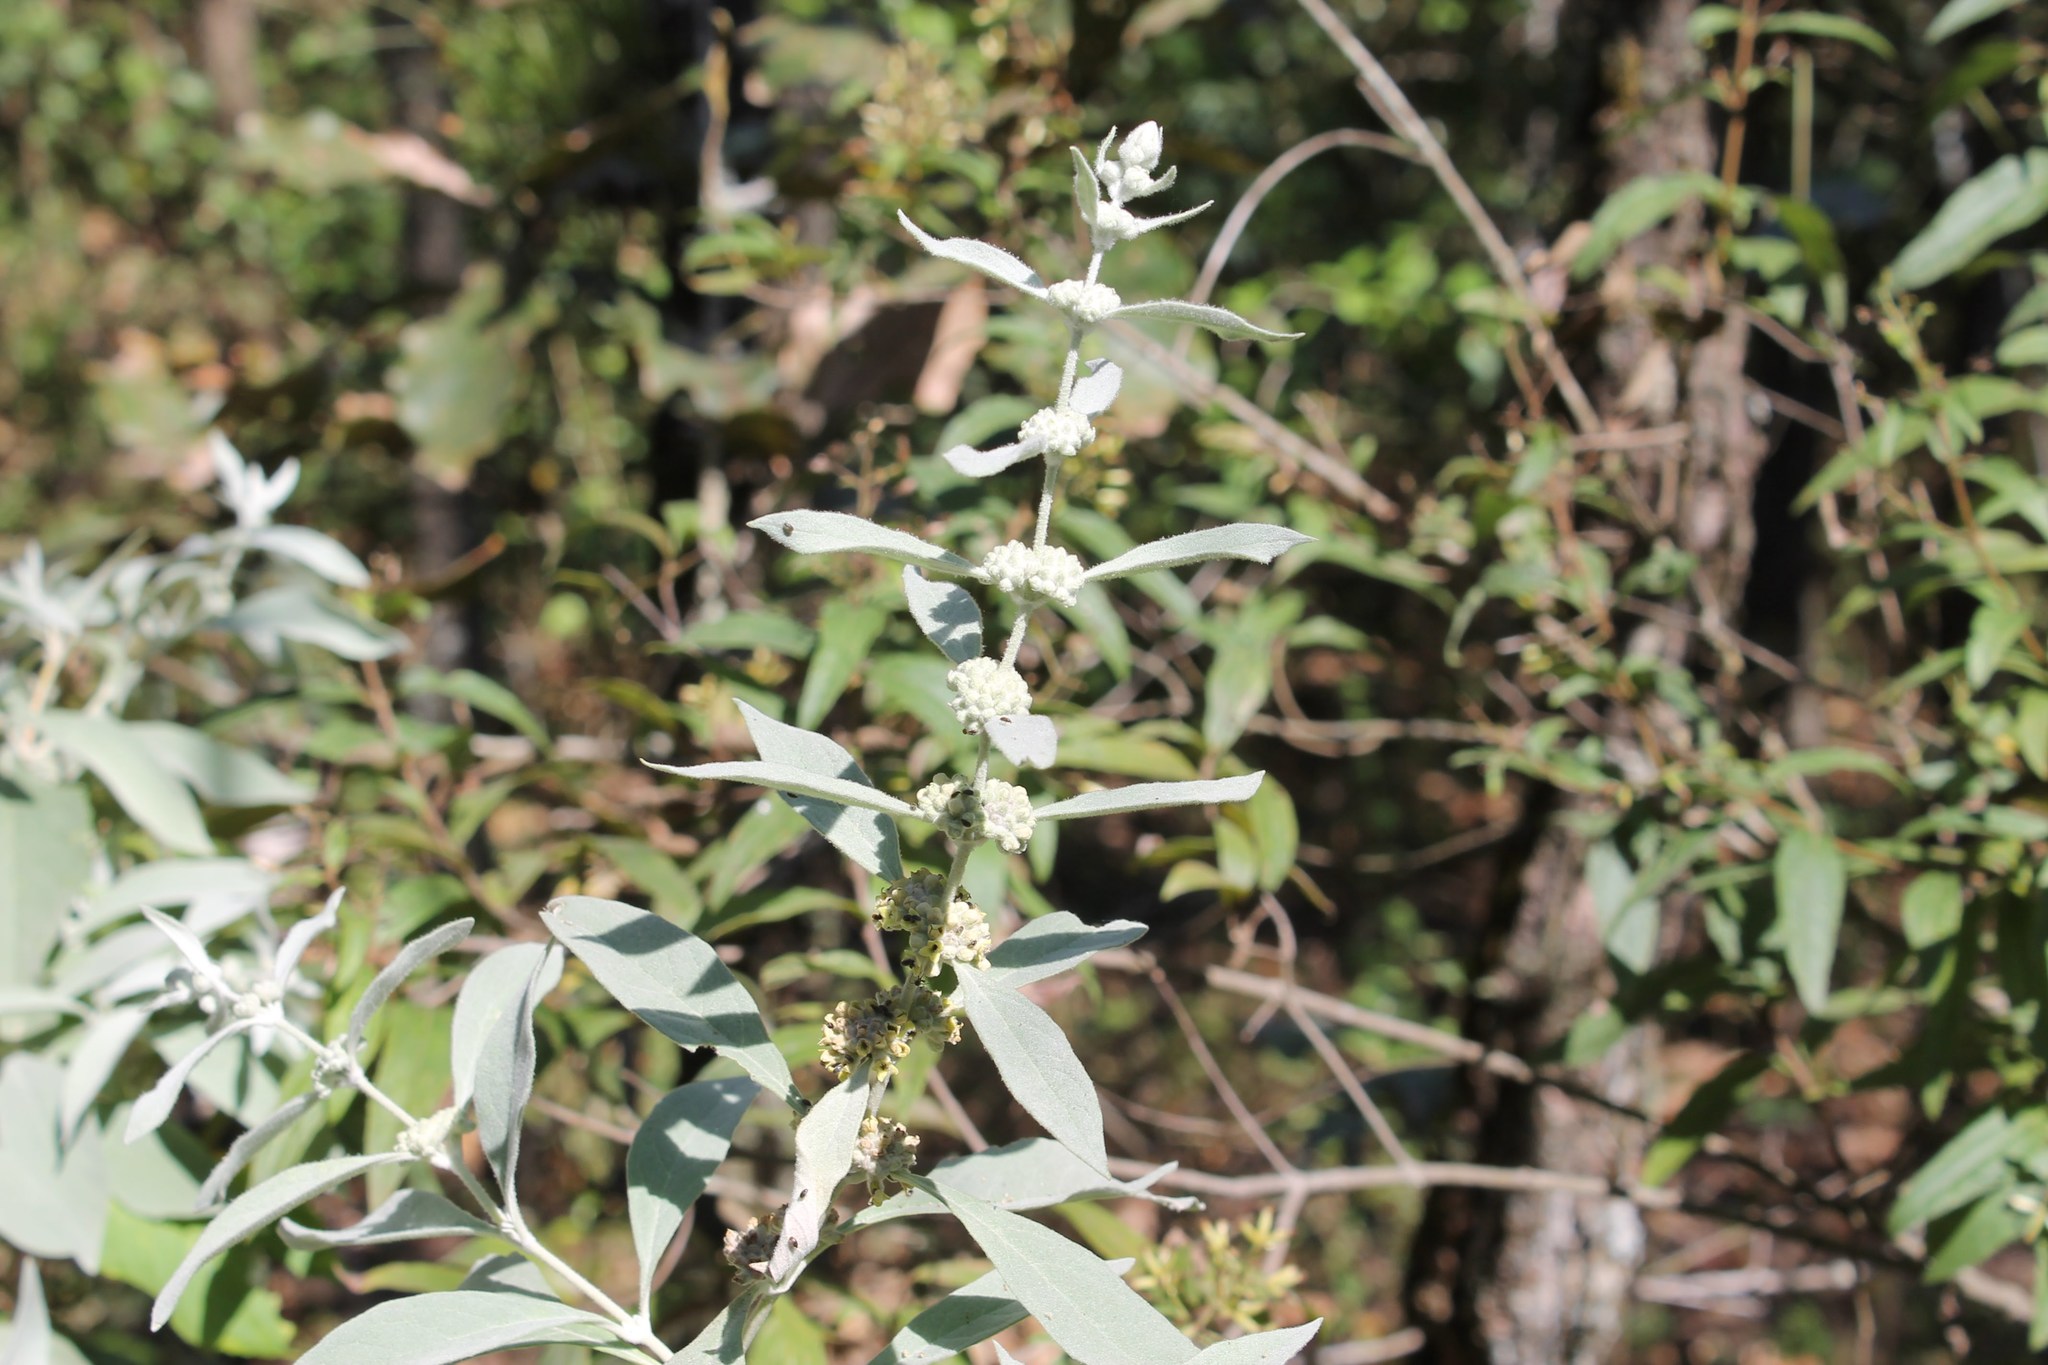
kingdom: Plantae
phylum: Tracheophyta
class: Magnoliopsida
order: Lamiales
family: Scrophulariaceae
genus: Buddleja
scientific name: Buddleja sessiliflora
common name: Rio grande butterfly-bush
